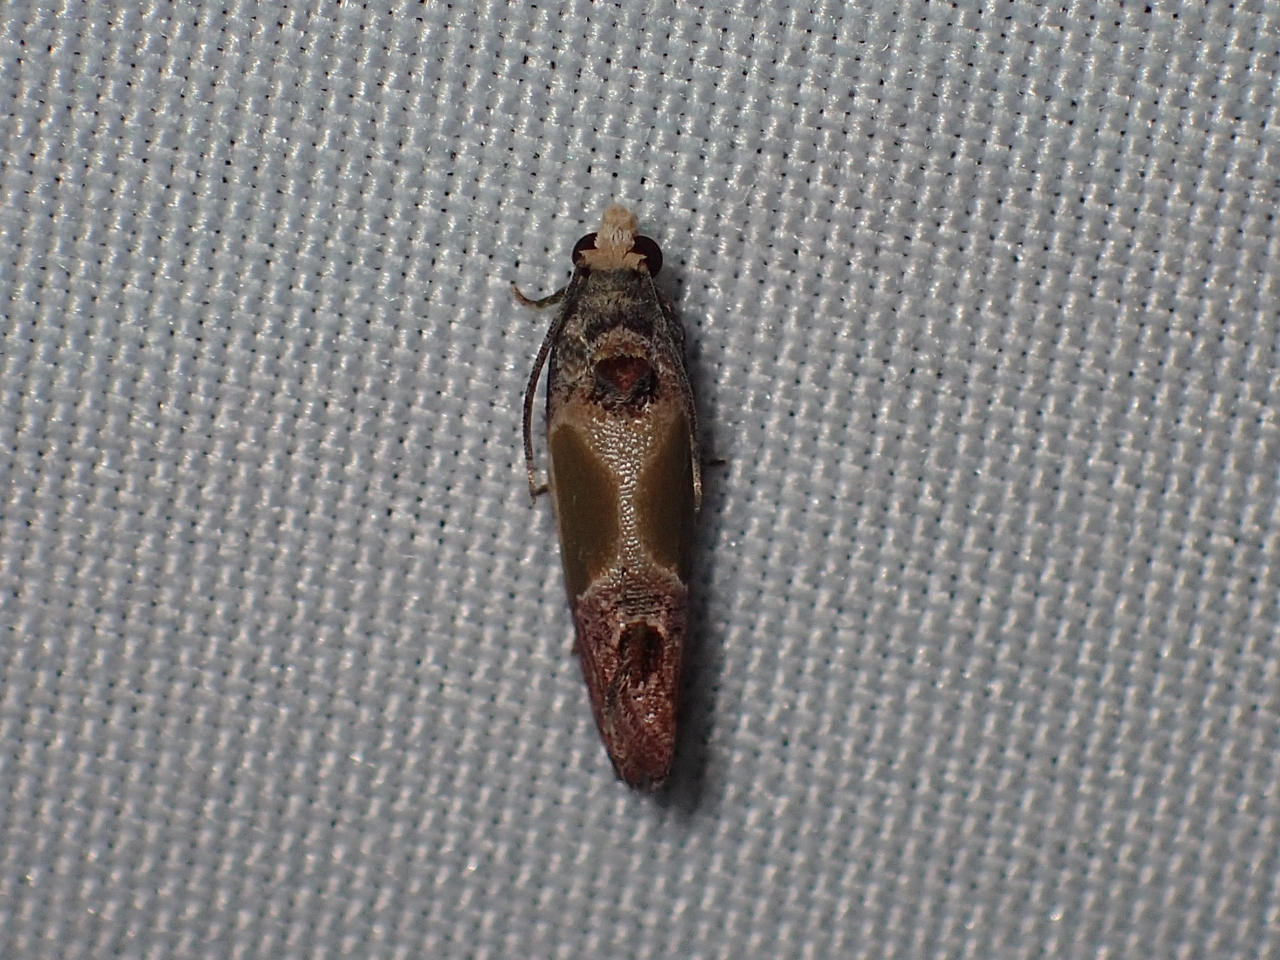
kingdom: Animalia
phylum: Arthropoda
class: Insecta
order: Lepidoptera
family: Tortricidae
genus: Eumarozia
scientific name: Eumarozia malachitana
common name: Sculptured moth
